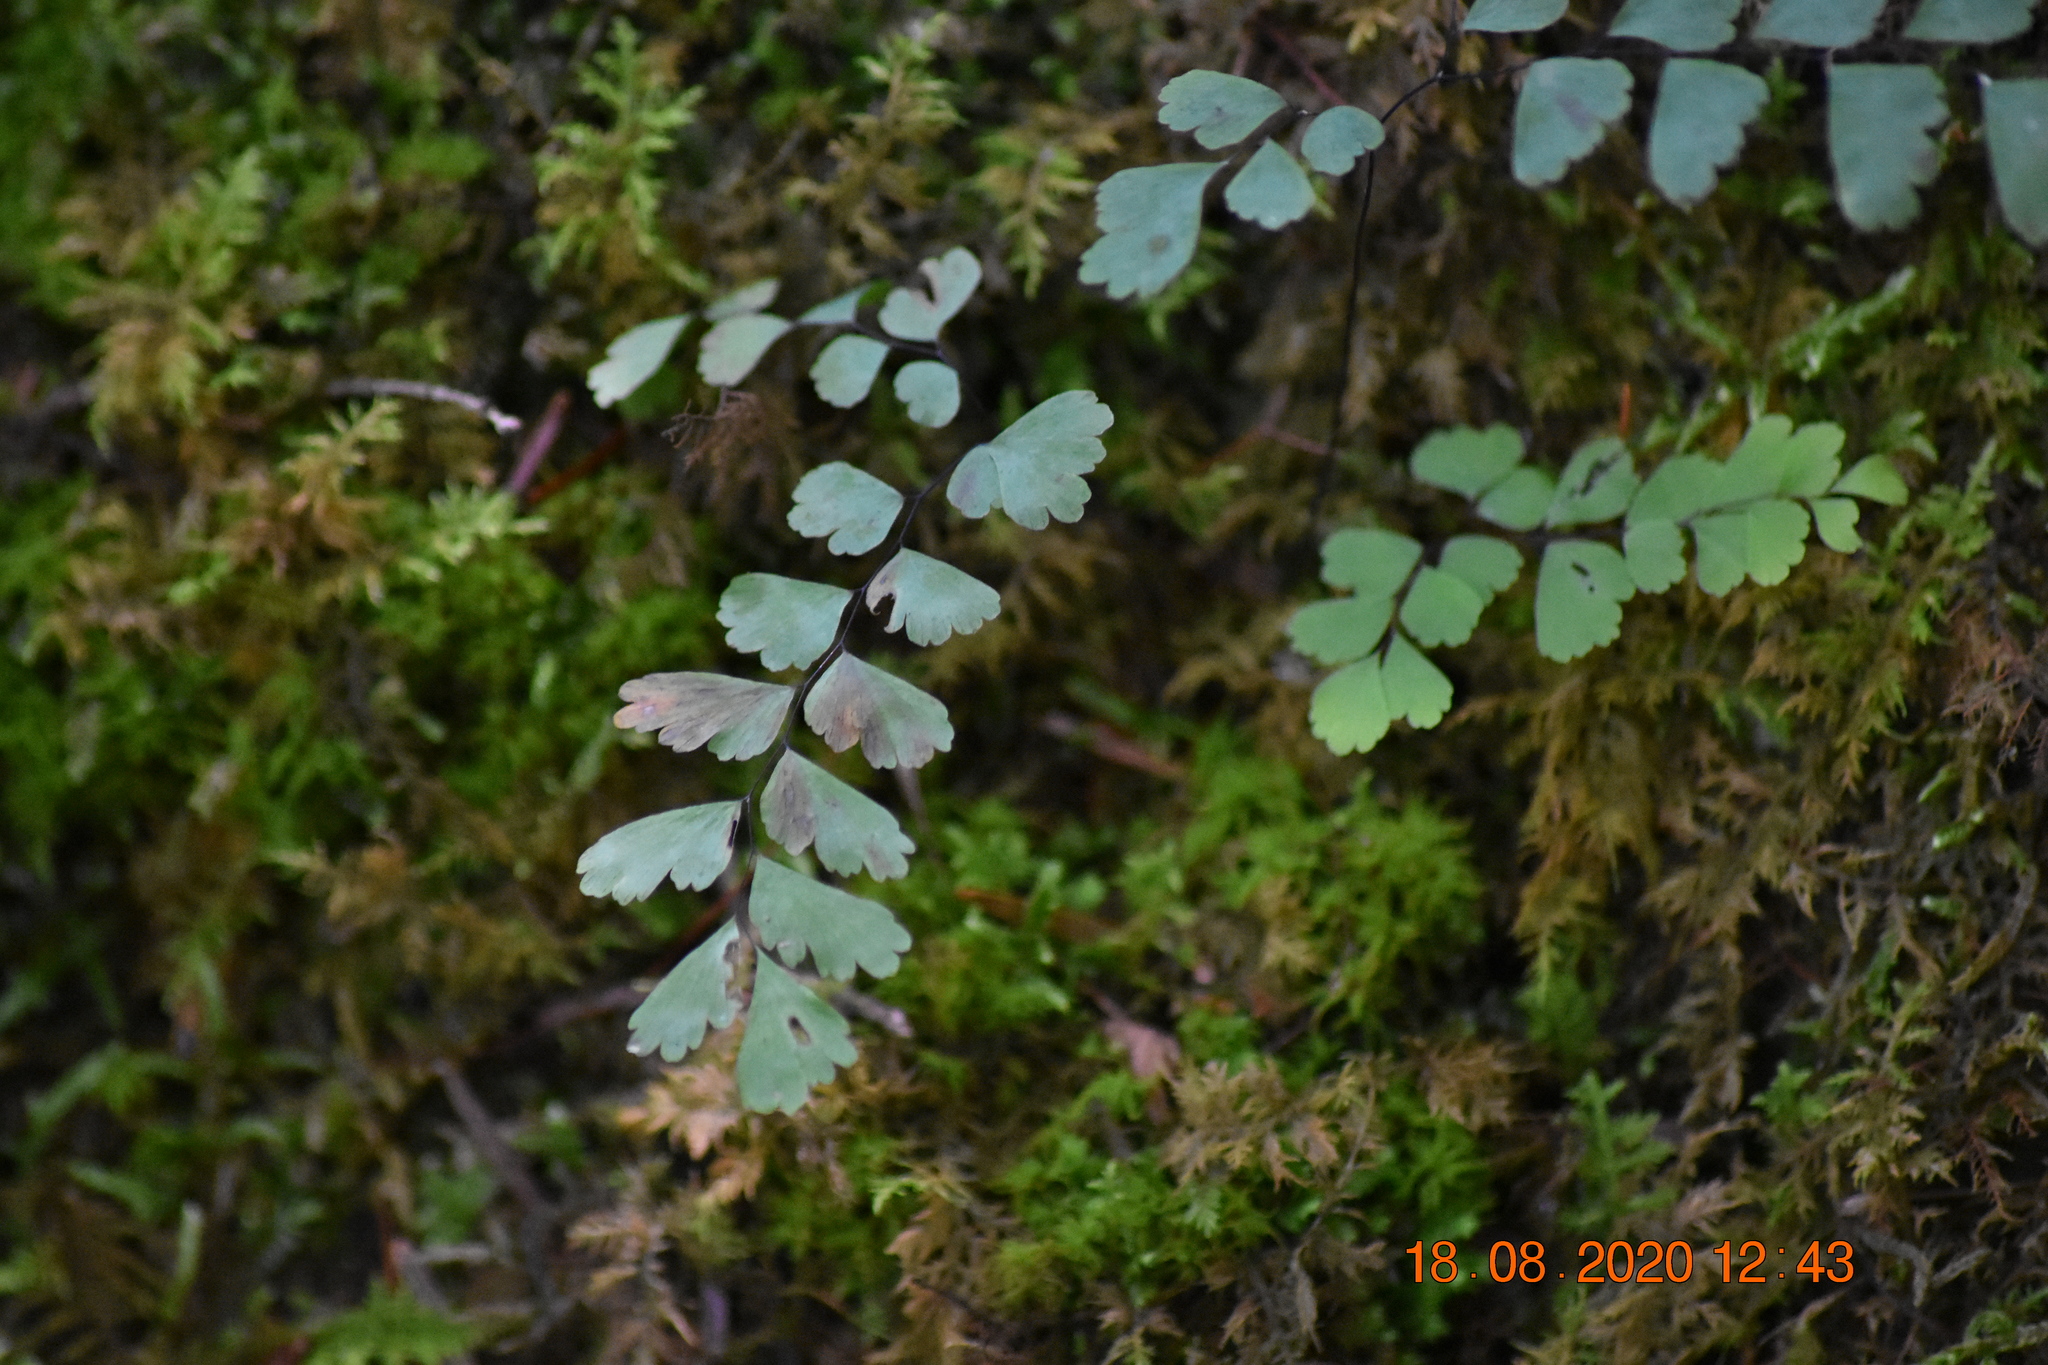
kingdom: Plantae
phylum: Tracheophyta
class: Polypodiopsida
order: Polypodiales
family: Aspleniaceae
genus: Asplenium
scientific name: Asplenium trichomanes
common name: Maidenhair spleenwort
